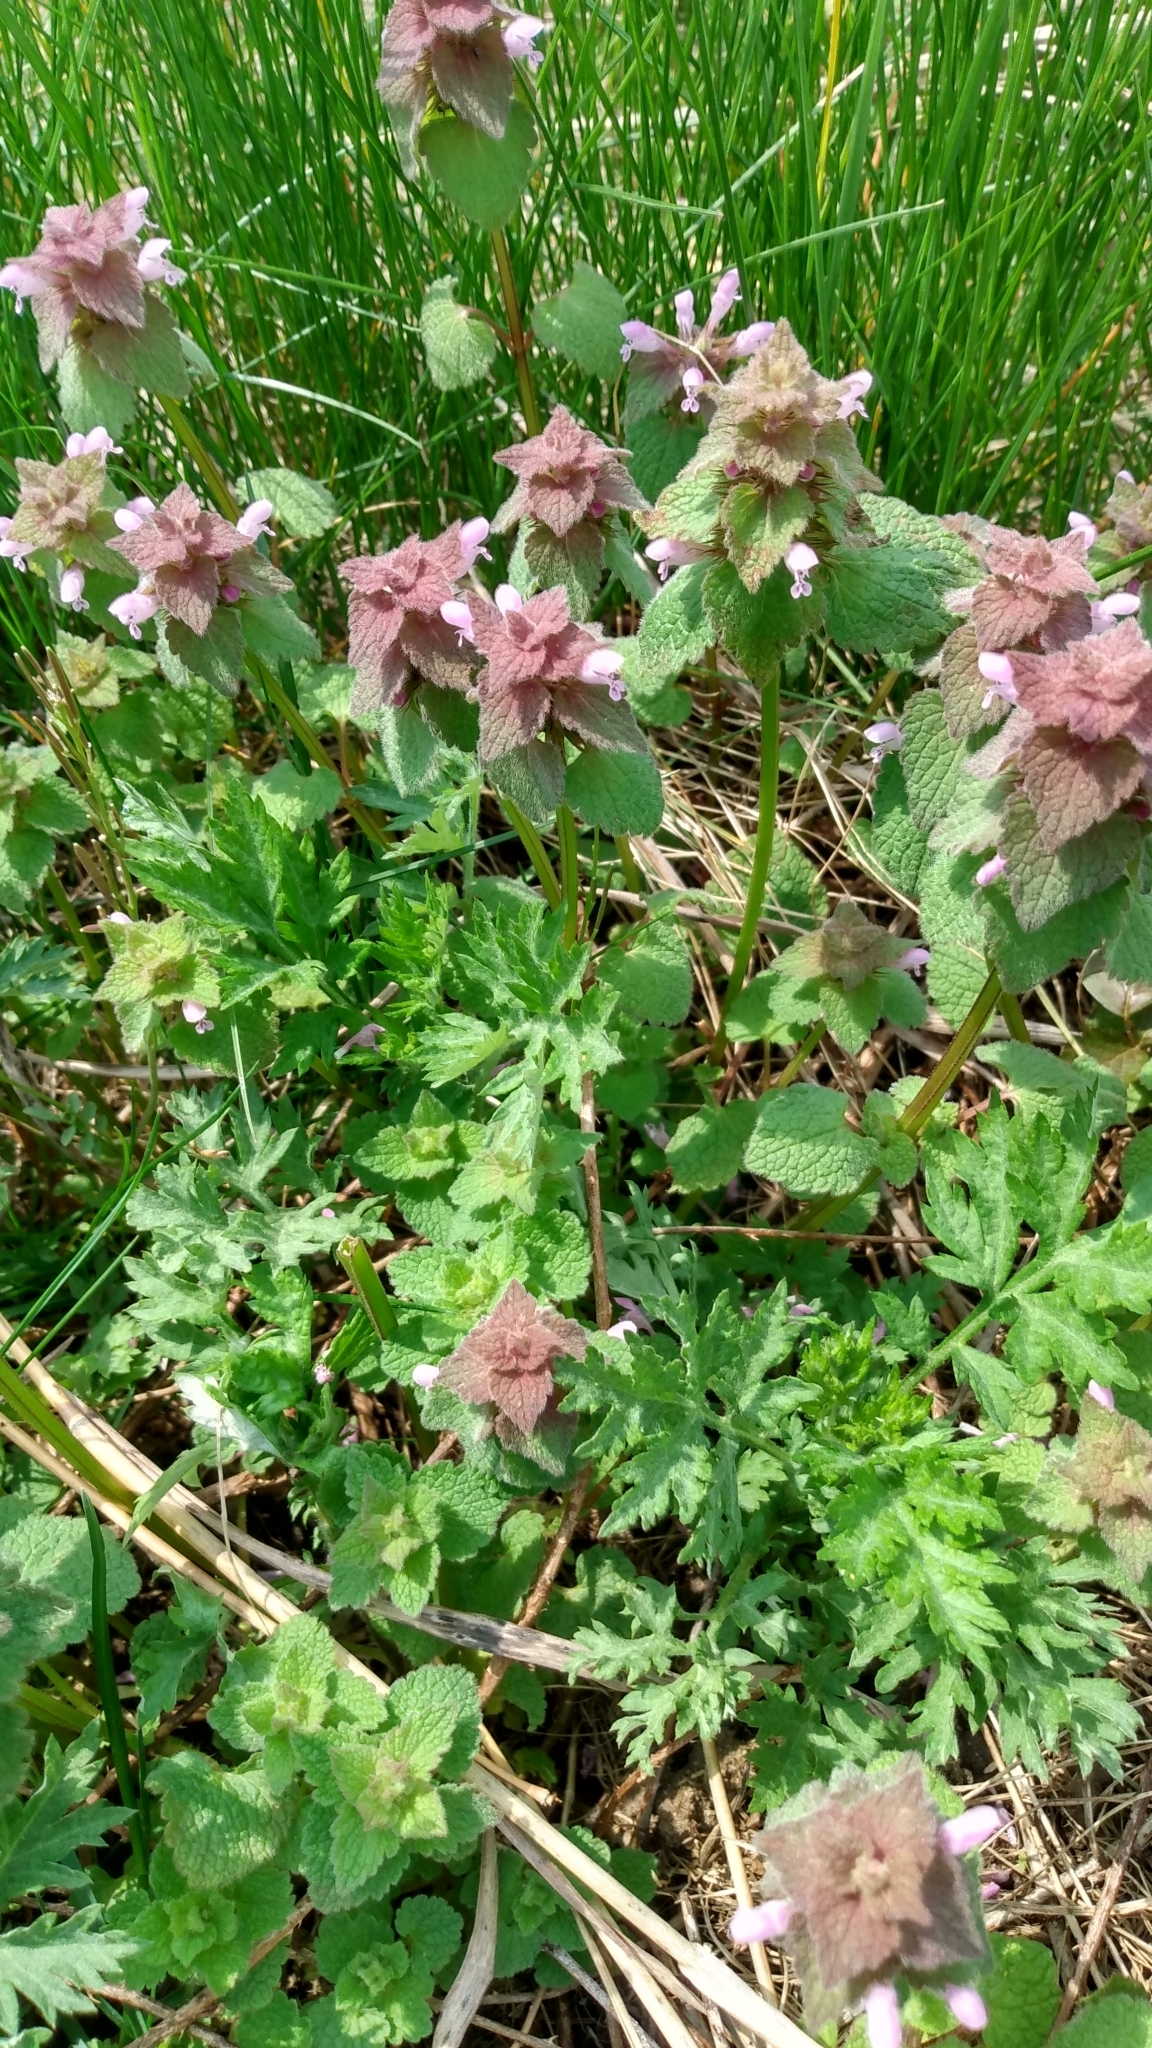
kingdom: Plantae
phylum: Tracheophyta
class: Magnoliopsida
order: Lamiales
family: Lamiaceae
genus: Lamium
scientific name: Lamium purpureum
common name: Red dead-nettle
